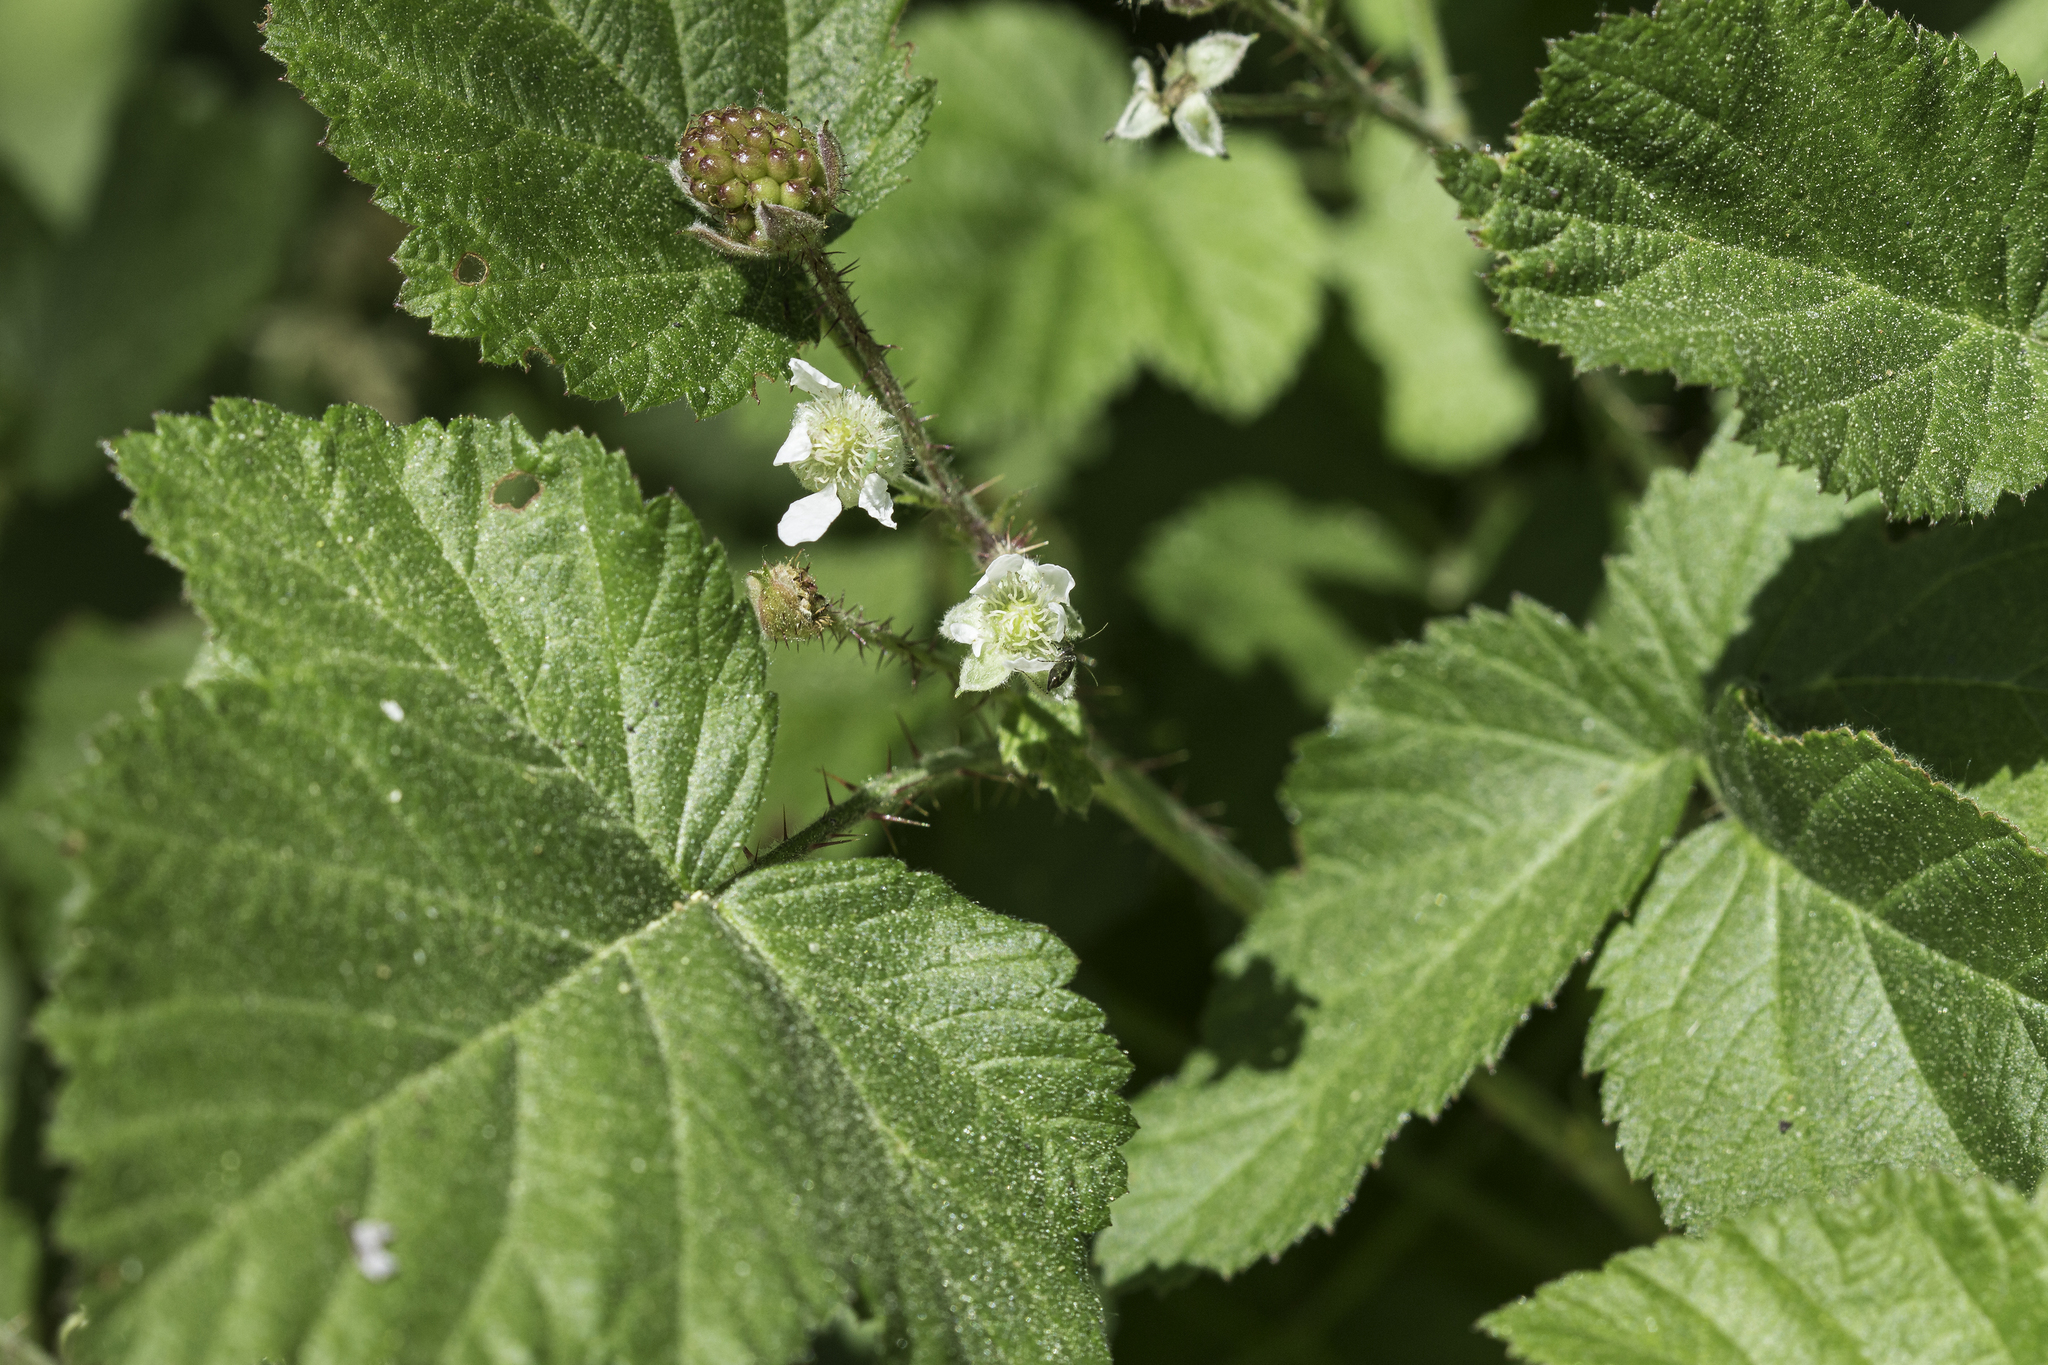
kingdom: Plantae
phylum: Tracheophyta
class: Magnoliopsida
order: Rosales
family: Rosaceae
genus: Rubus
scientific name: Rubus ursinus
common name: Pacific blackberry
